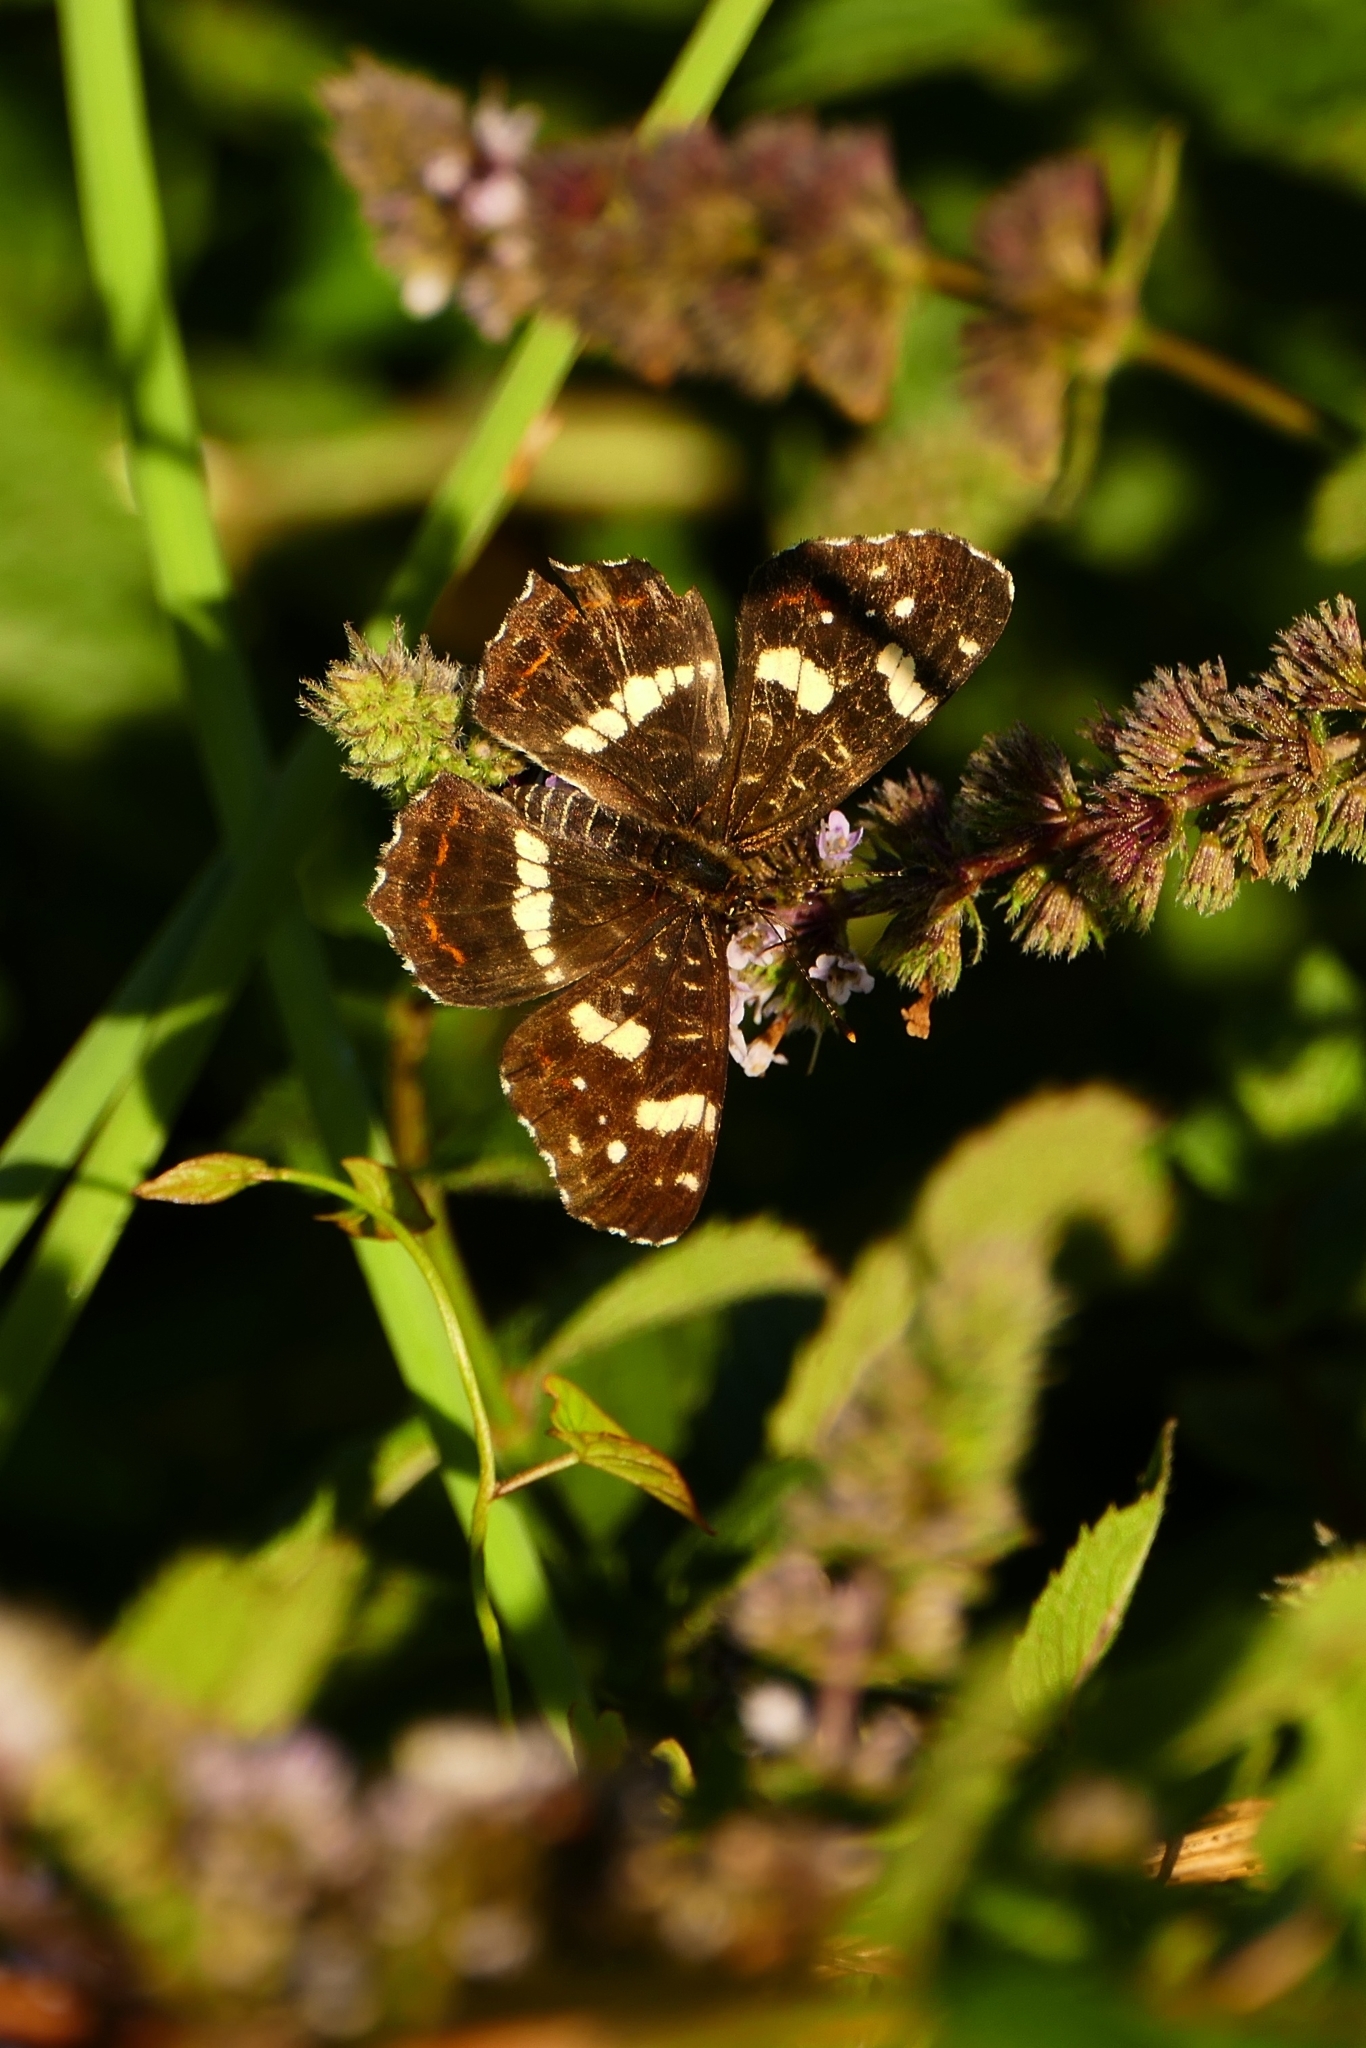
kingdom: Animalia
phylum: Arthropoda
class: Insecta
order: Lepidoptera
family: Nymphalidae
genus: Araschnia
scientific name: Araschnia levana
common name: Map butterfly
